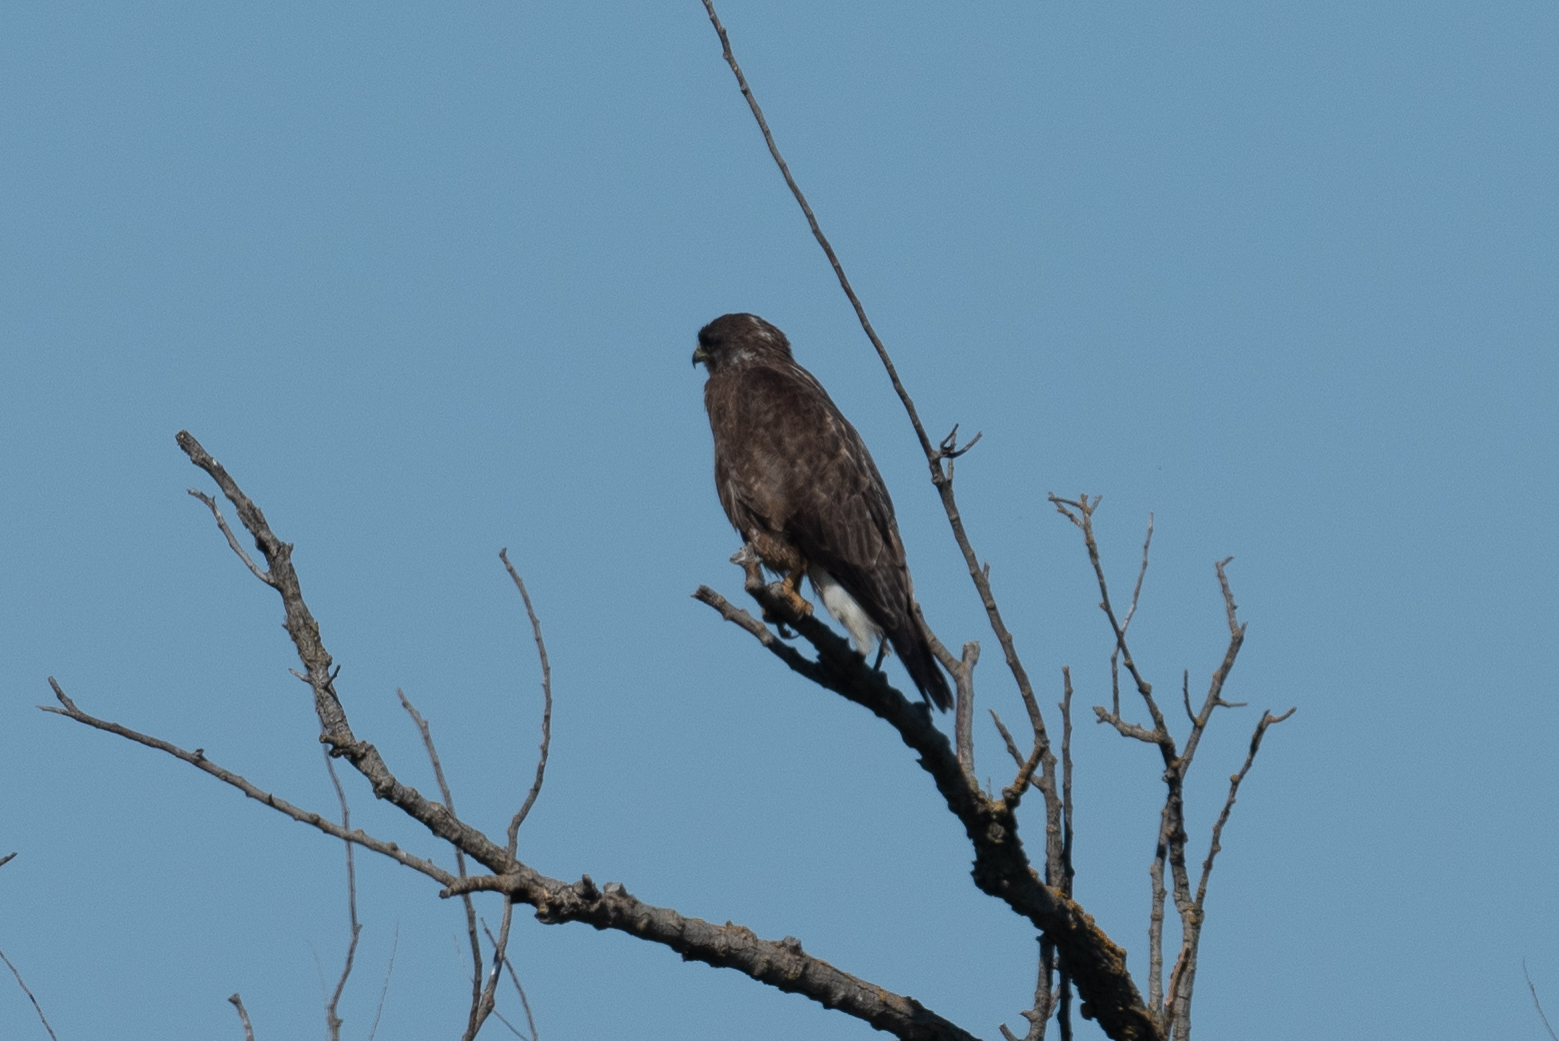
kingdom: Animalia
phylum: Chordata
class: Aves
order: Accipitriformes
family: Accipitridae
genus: Buteo
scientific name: Buteo swainsoni
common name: Swainson's hawk
